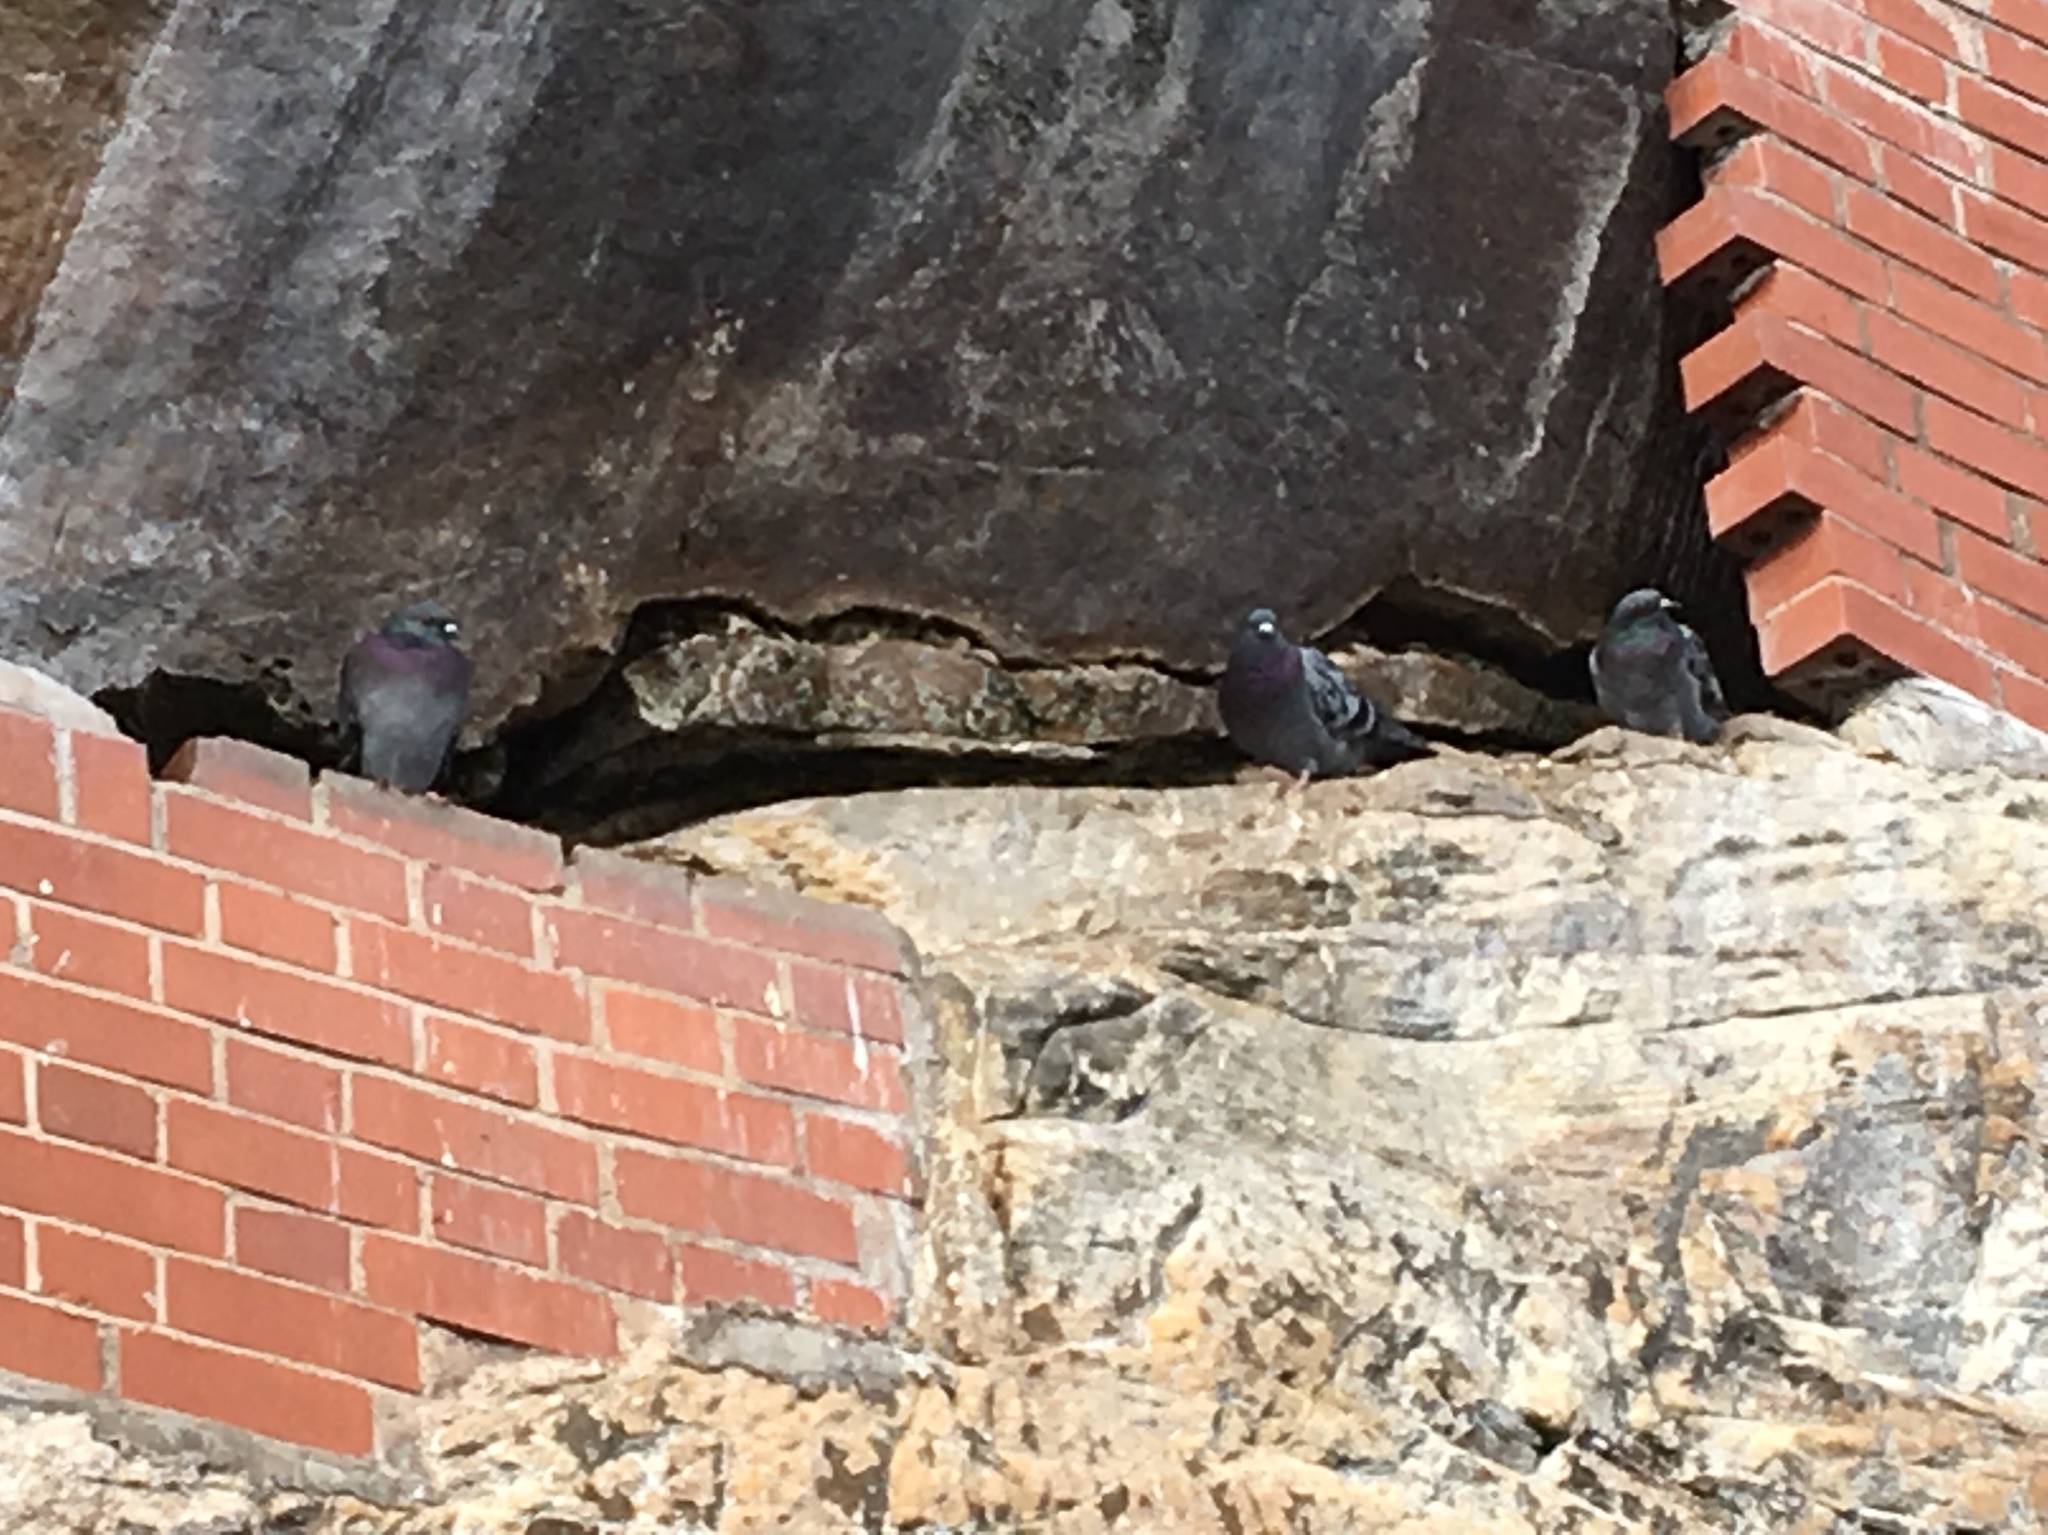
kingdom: Animalia
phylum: Chordata
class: Aves
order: Columbiformes
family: Columbidae
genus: Columba
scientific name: Columba livia
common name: Rock pigeon
